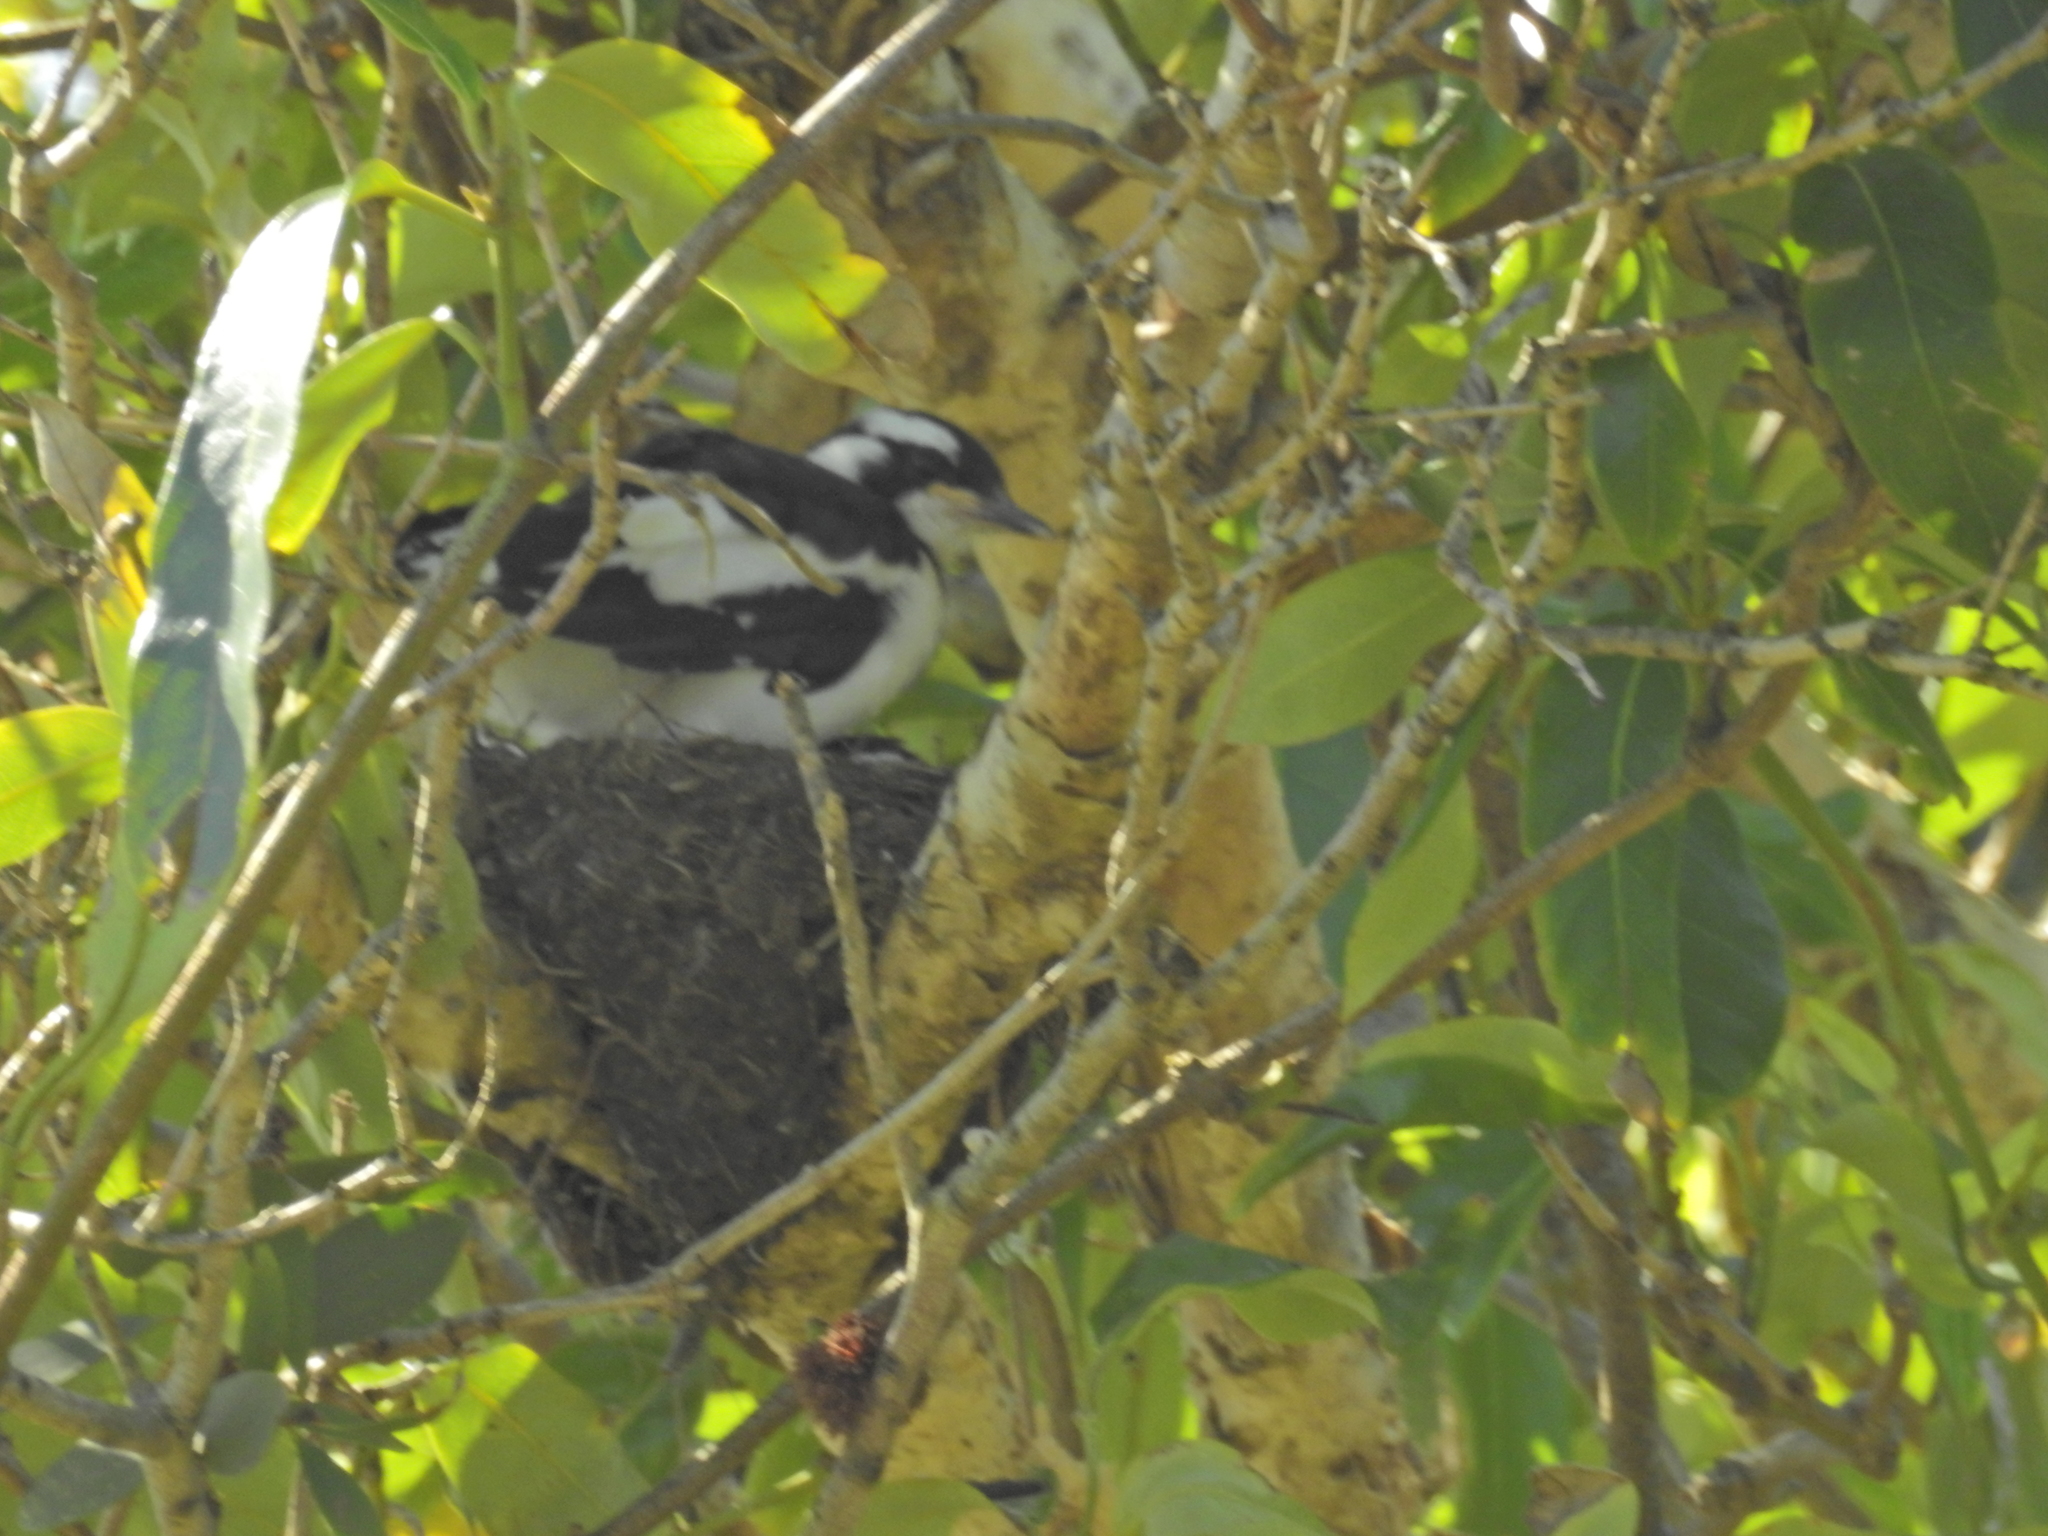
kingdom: Animalia
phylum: Chordata
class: Aves
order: Passeriformes
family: Monarchidae
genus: Grallina
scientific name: Grallina cyanoleuca
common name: Magpie-lark
